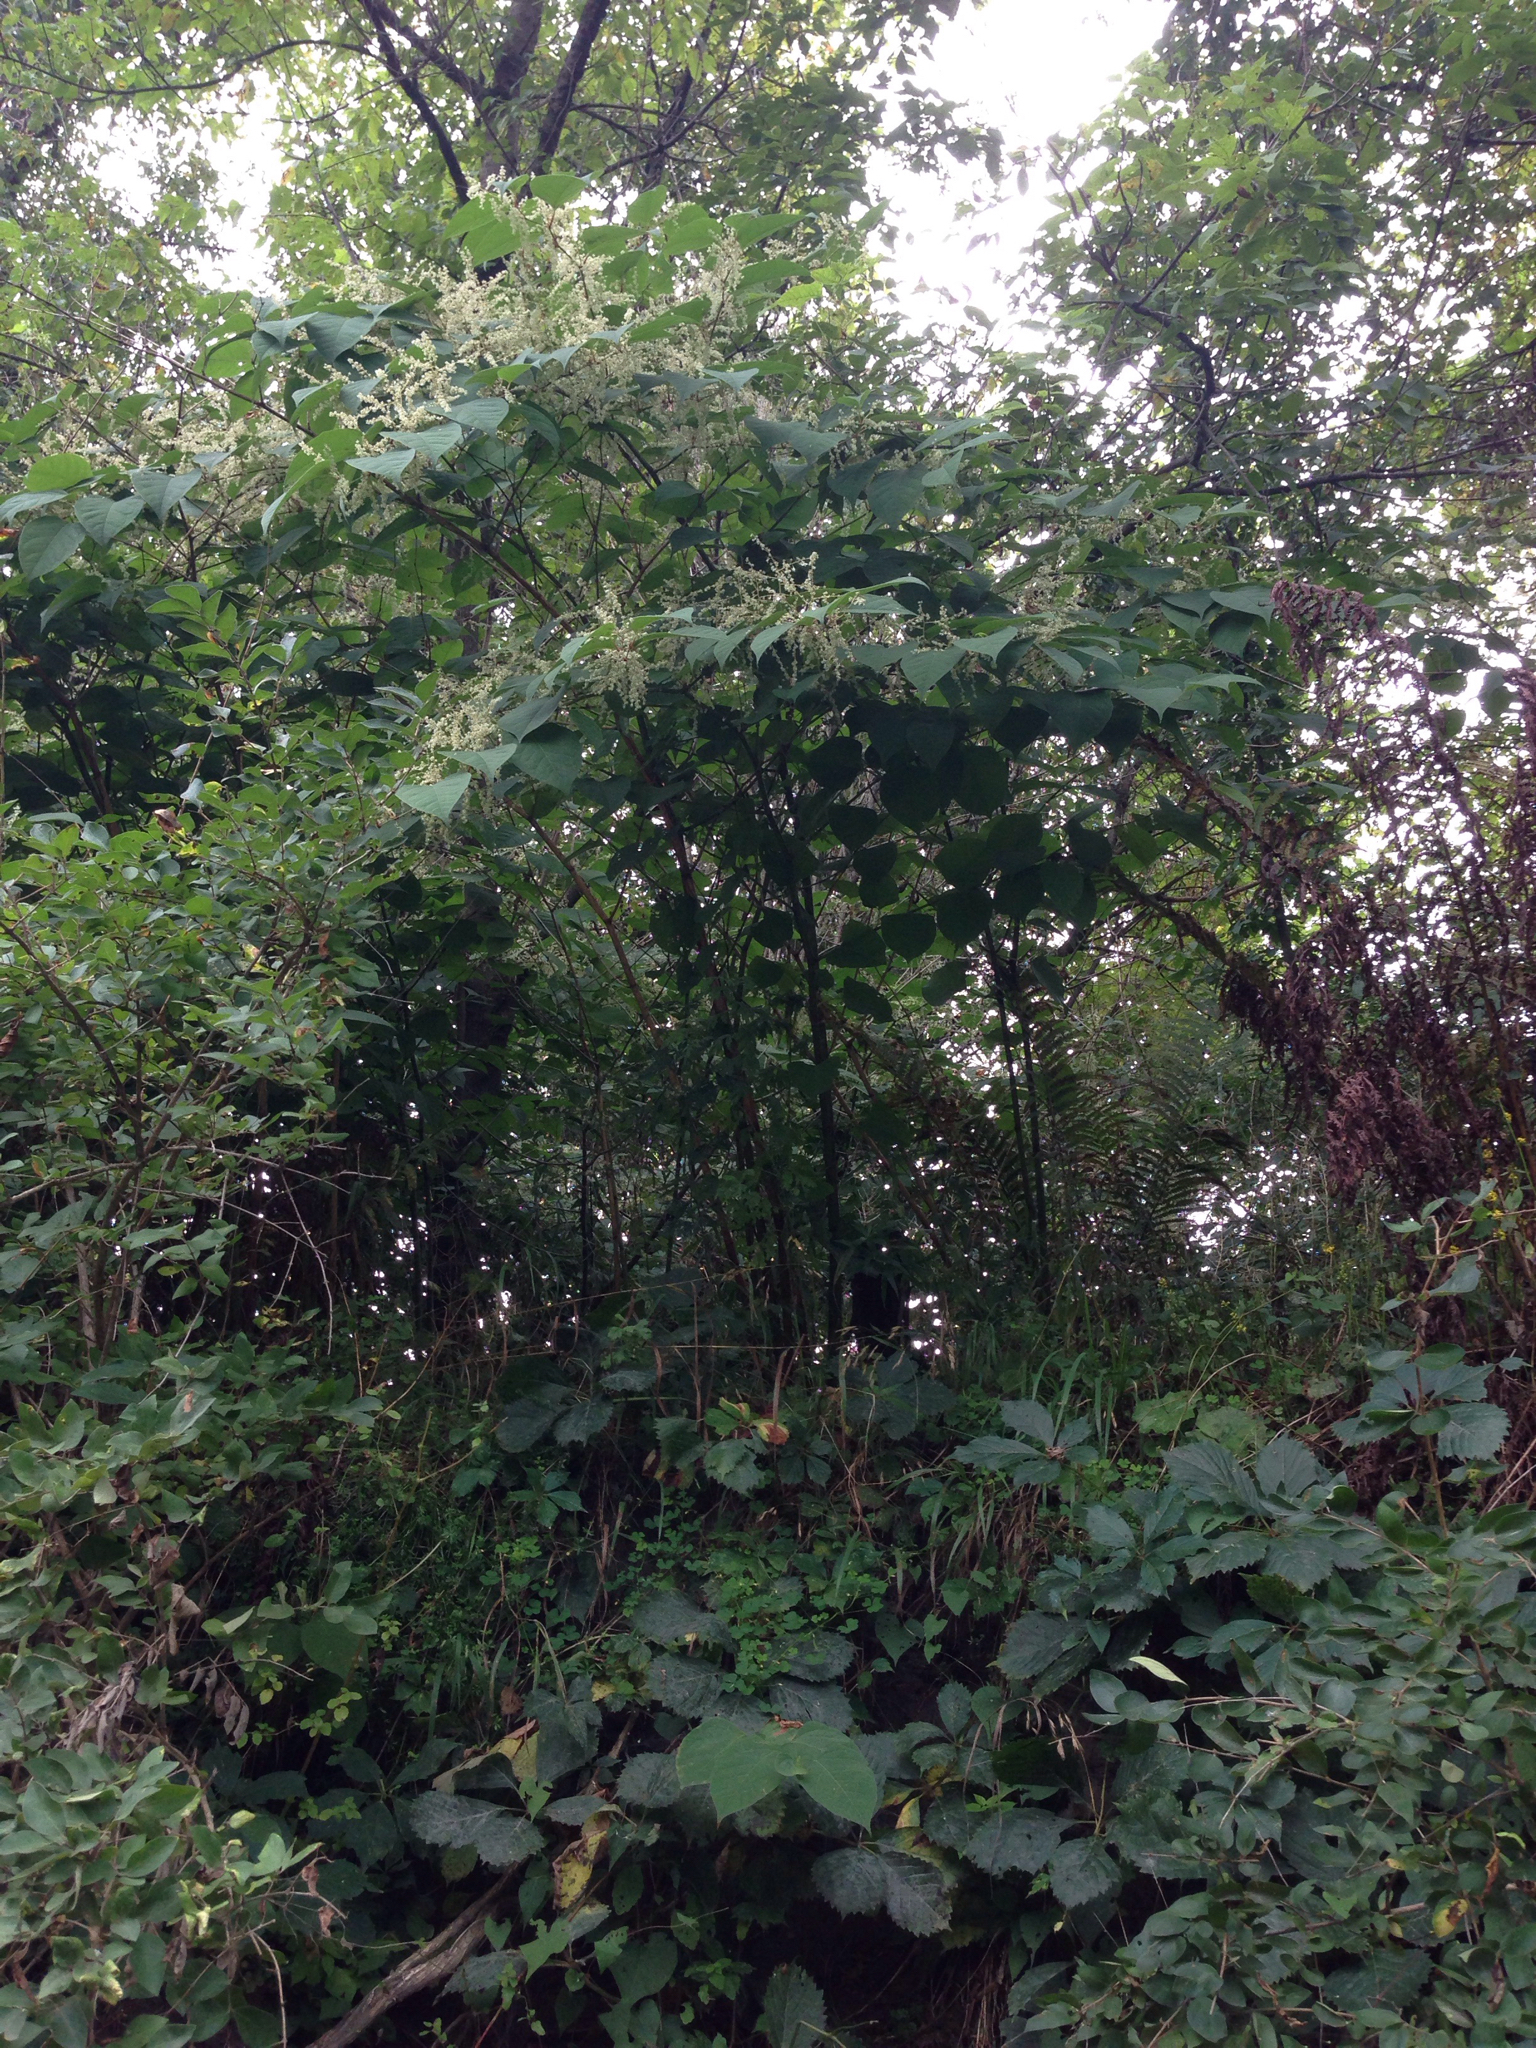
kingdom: Plantae
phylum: Tracheophyta
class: Magnoliopsida
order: Caryophyllales
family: Polygonaceae
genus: Reynoutria
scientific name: Reynoutria japonica
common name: Japanese knotweed
